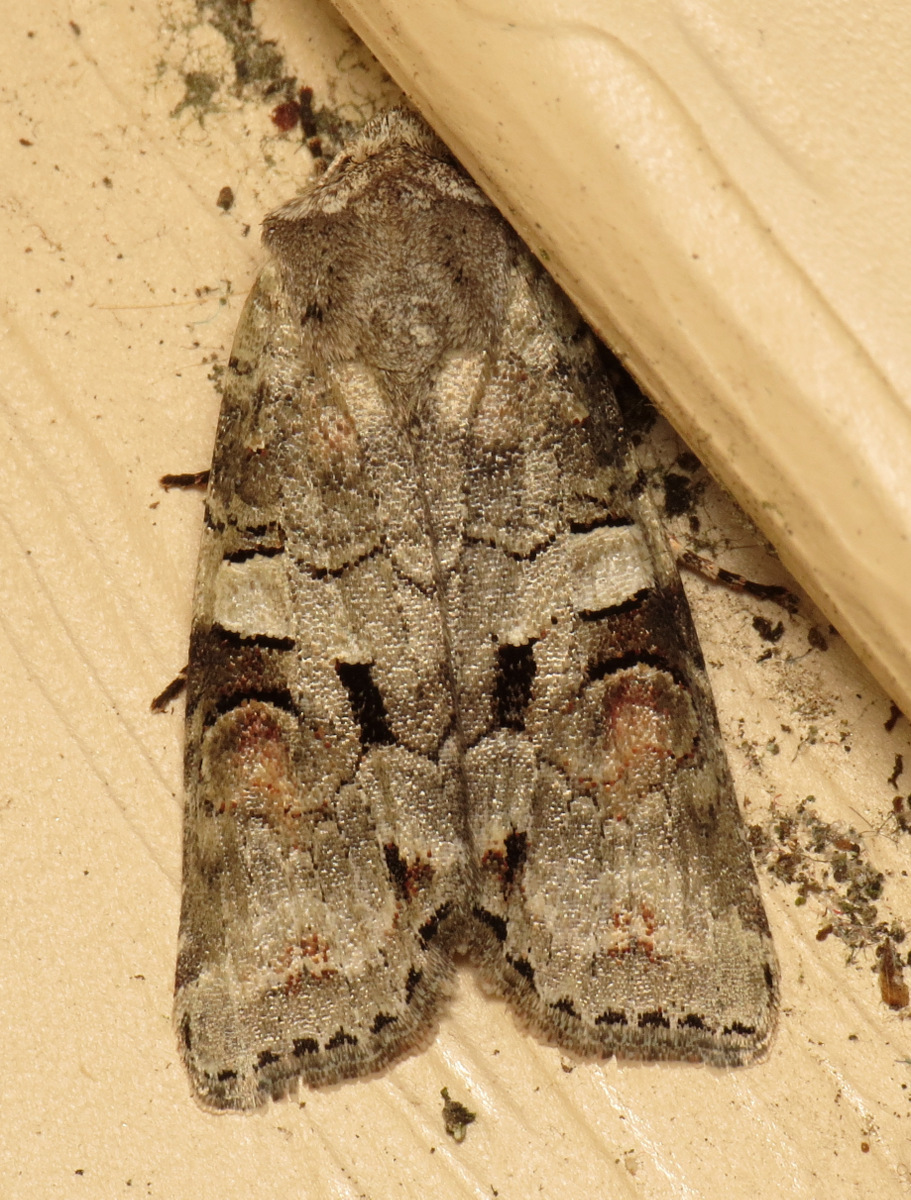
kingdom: Animalia
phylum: Arthropoda
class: Insecta
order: Lepidoptera
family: Noctuidae
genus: Egira
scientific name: Egira alternans
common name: Alternate woodling
